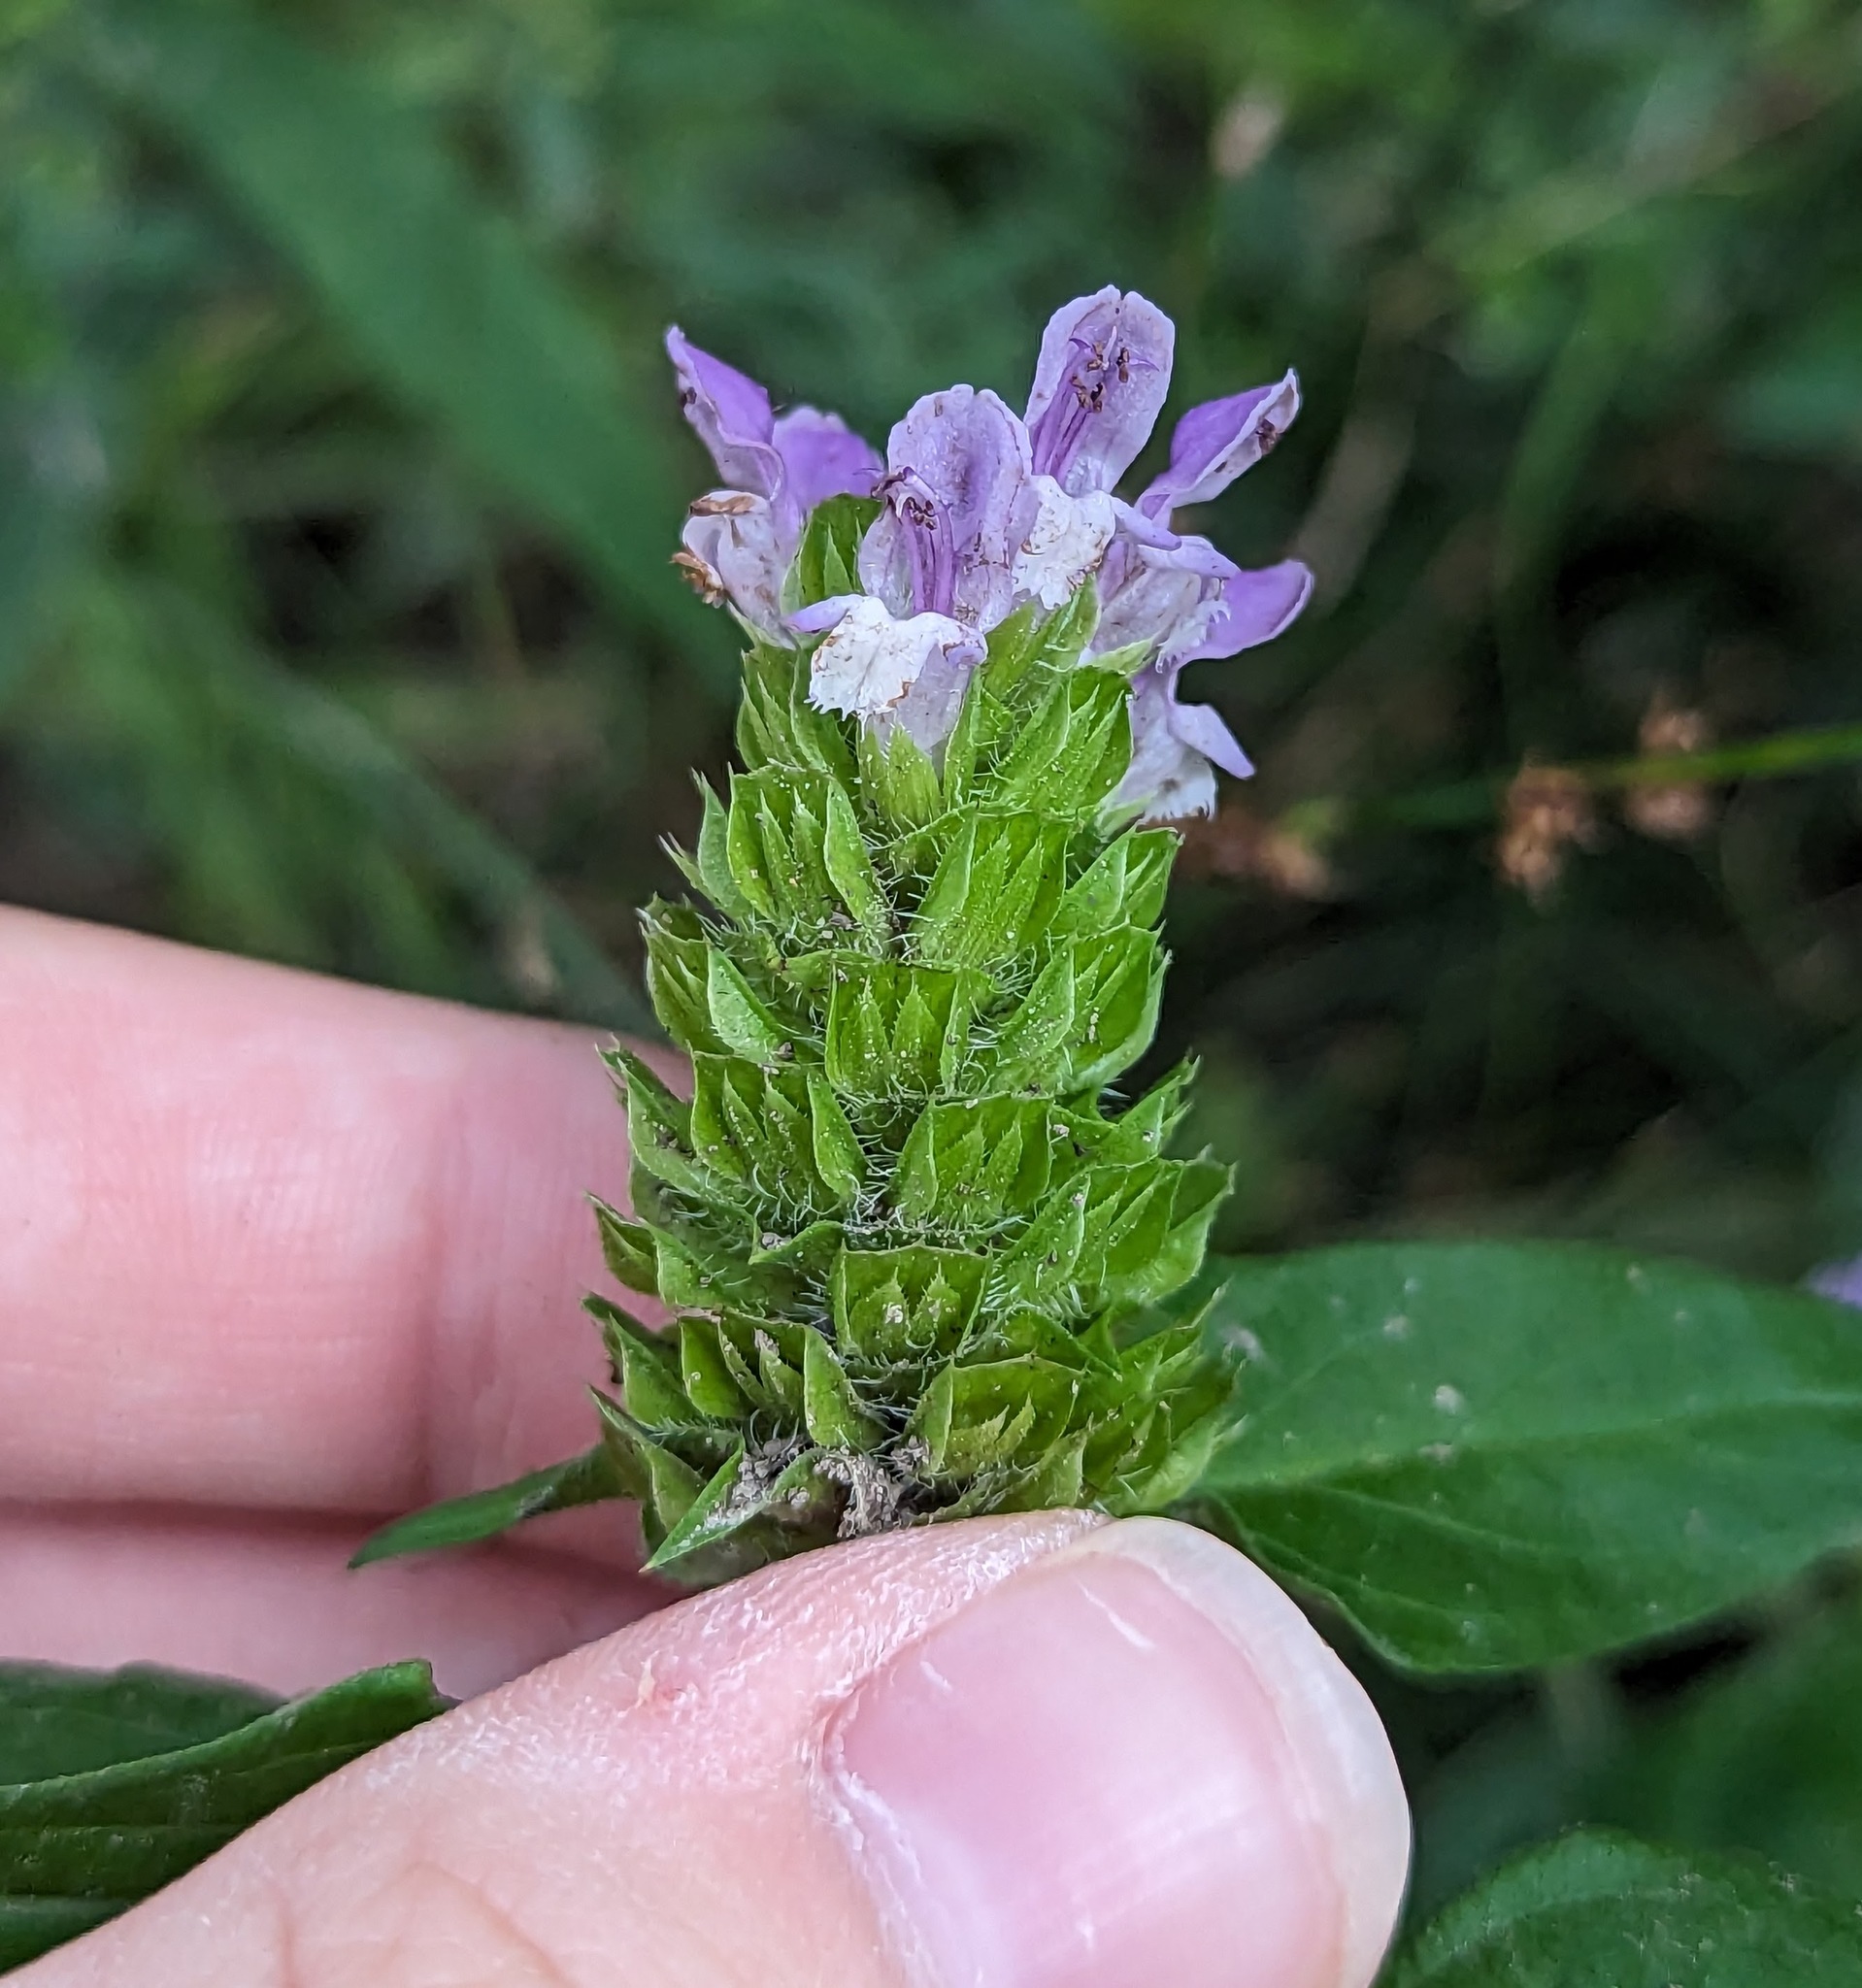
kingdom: Plantae
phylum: Tracheophyta
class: Magnoliopsida
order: Lamiales
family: Lamiaceae
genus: Prunella
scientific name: Prunella vulgaris
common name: Heal-all
